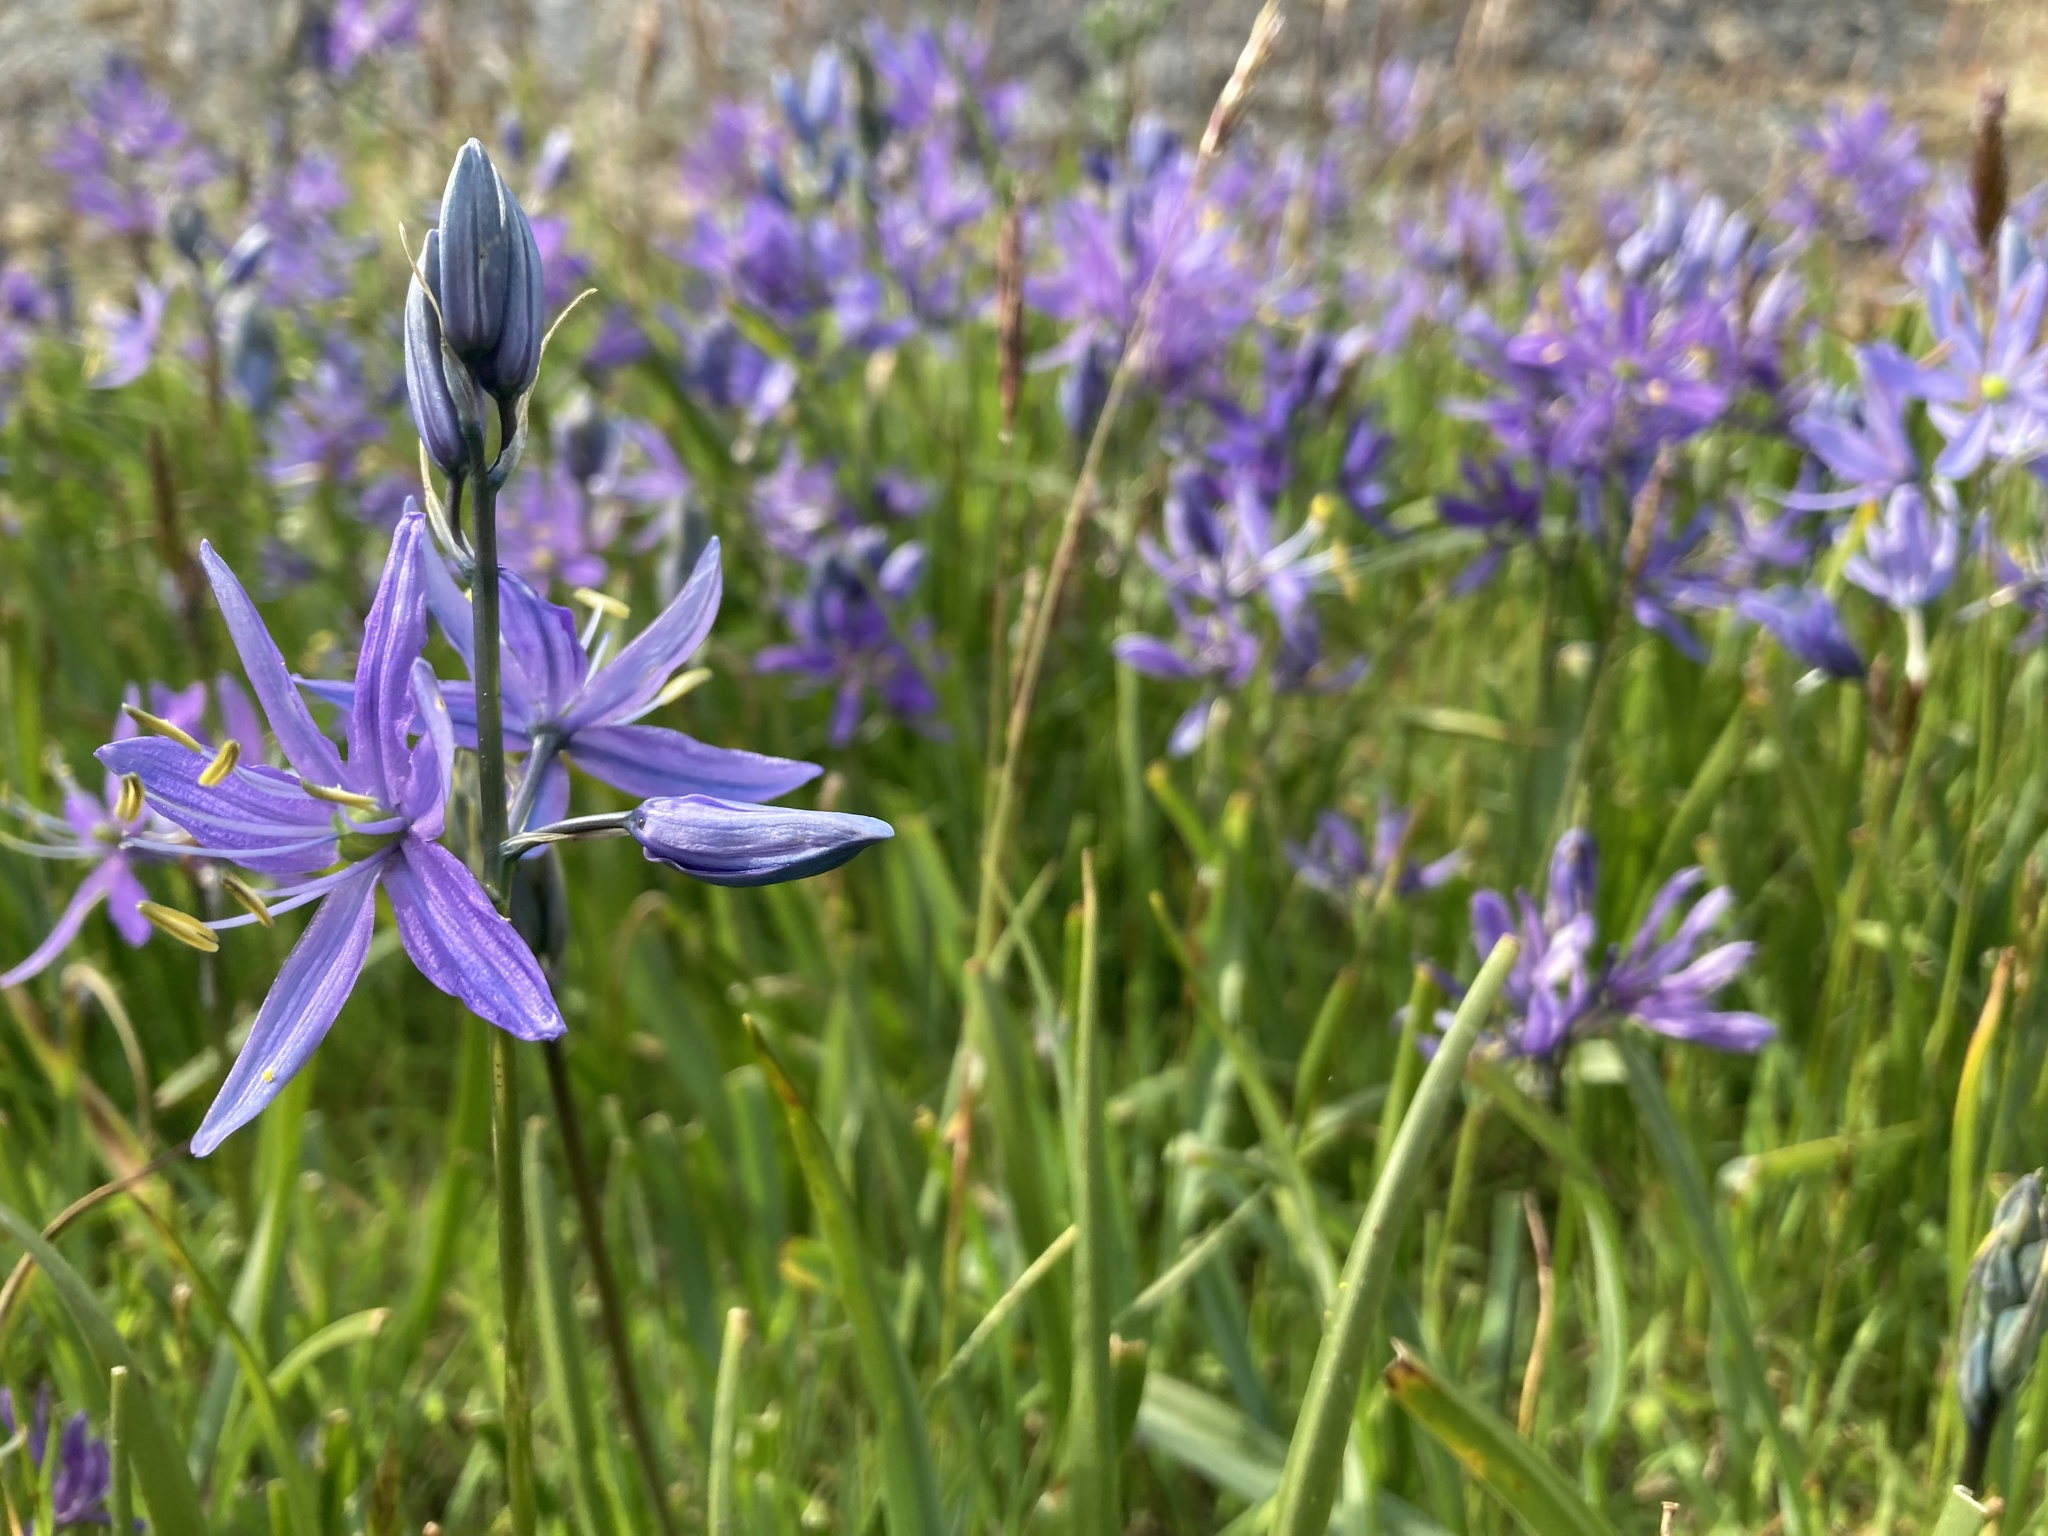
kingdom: Plantae
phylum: Tracheophyta
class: Liliopsida
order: Asparagales
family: Asparagaceae
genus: Camassia
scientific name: Camassia quamash
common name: Common camas
